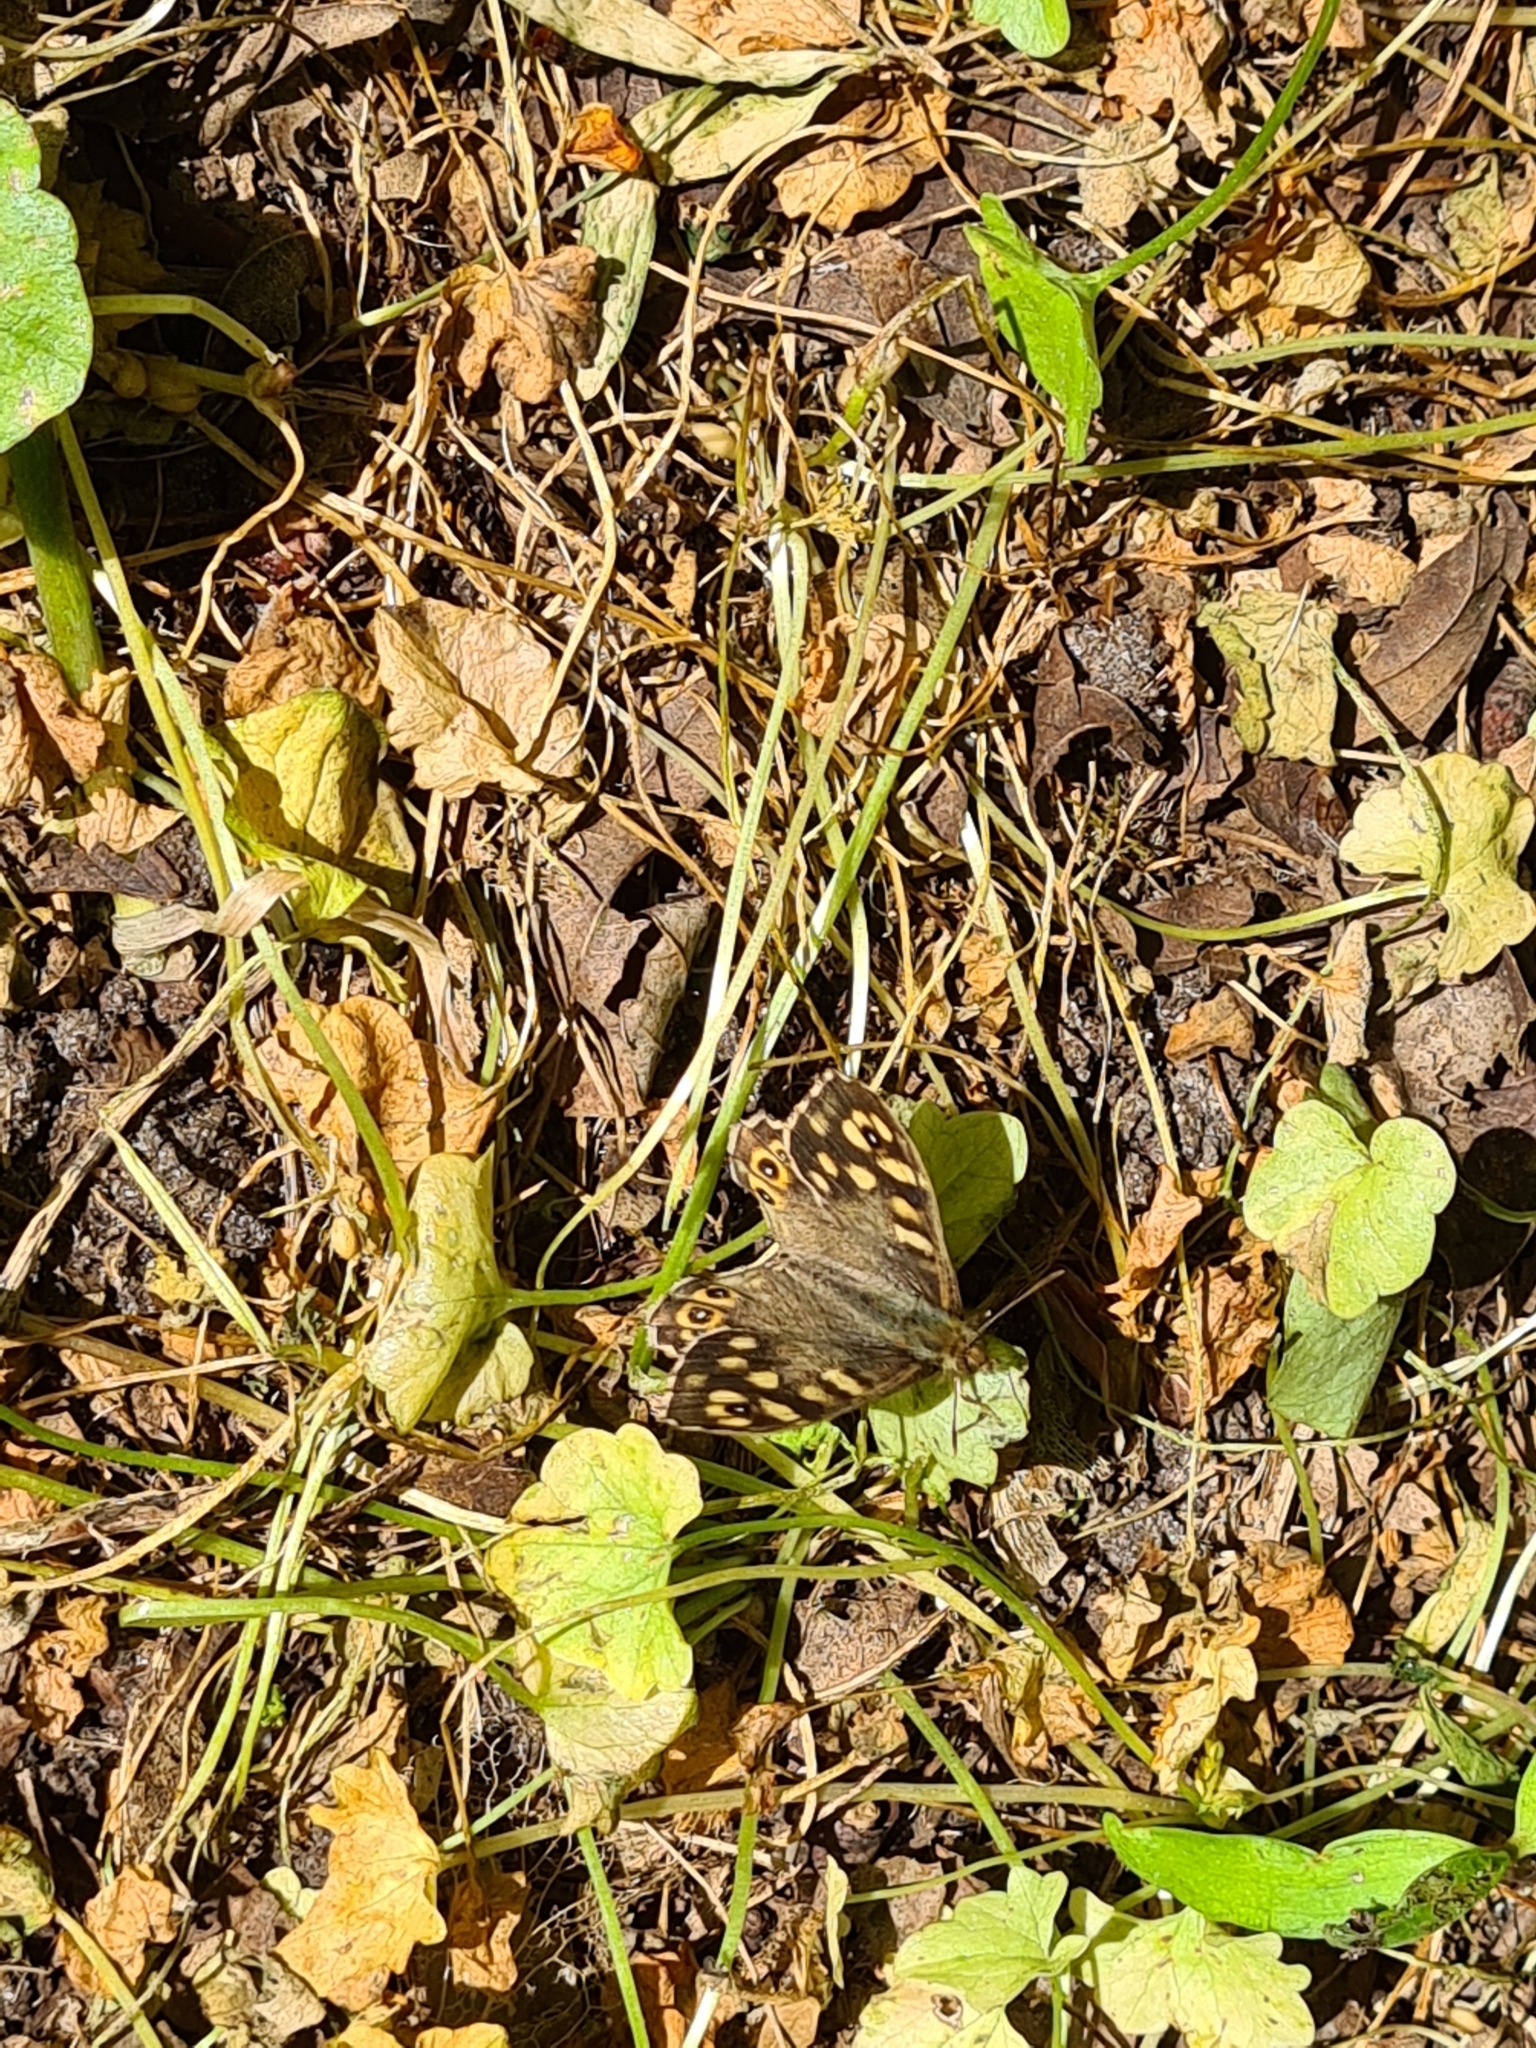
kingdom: Animalia
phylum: Arthropoda
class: Insecta
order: Lepidoptera
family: Nymphalidae
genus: Pararge
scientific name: Pararge aegeria
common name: Speckled wood
